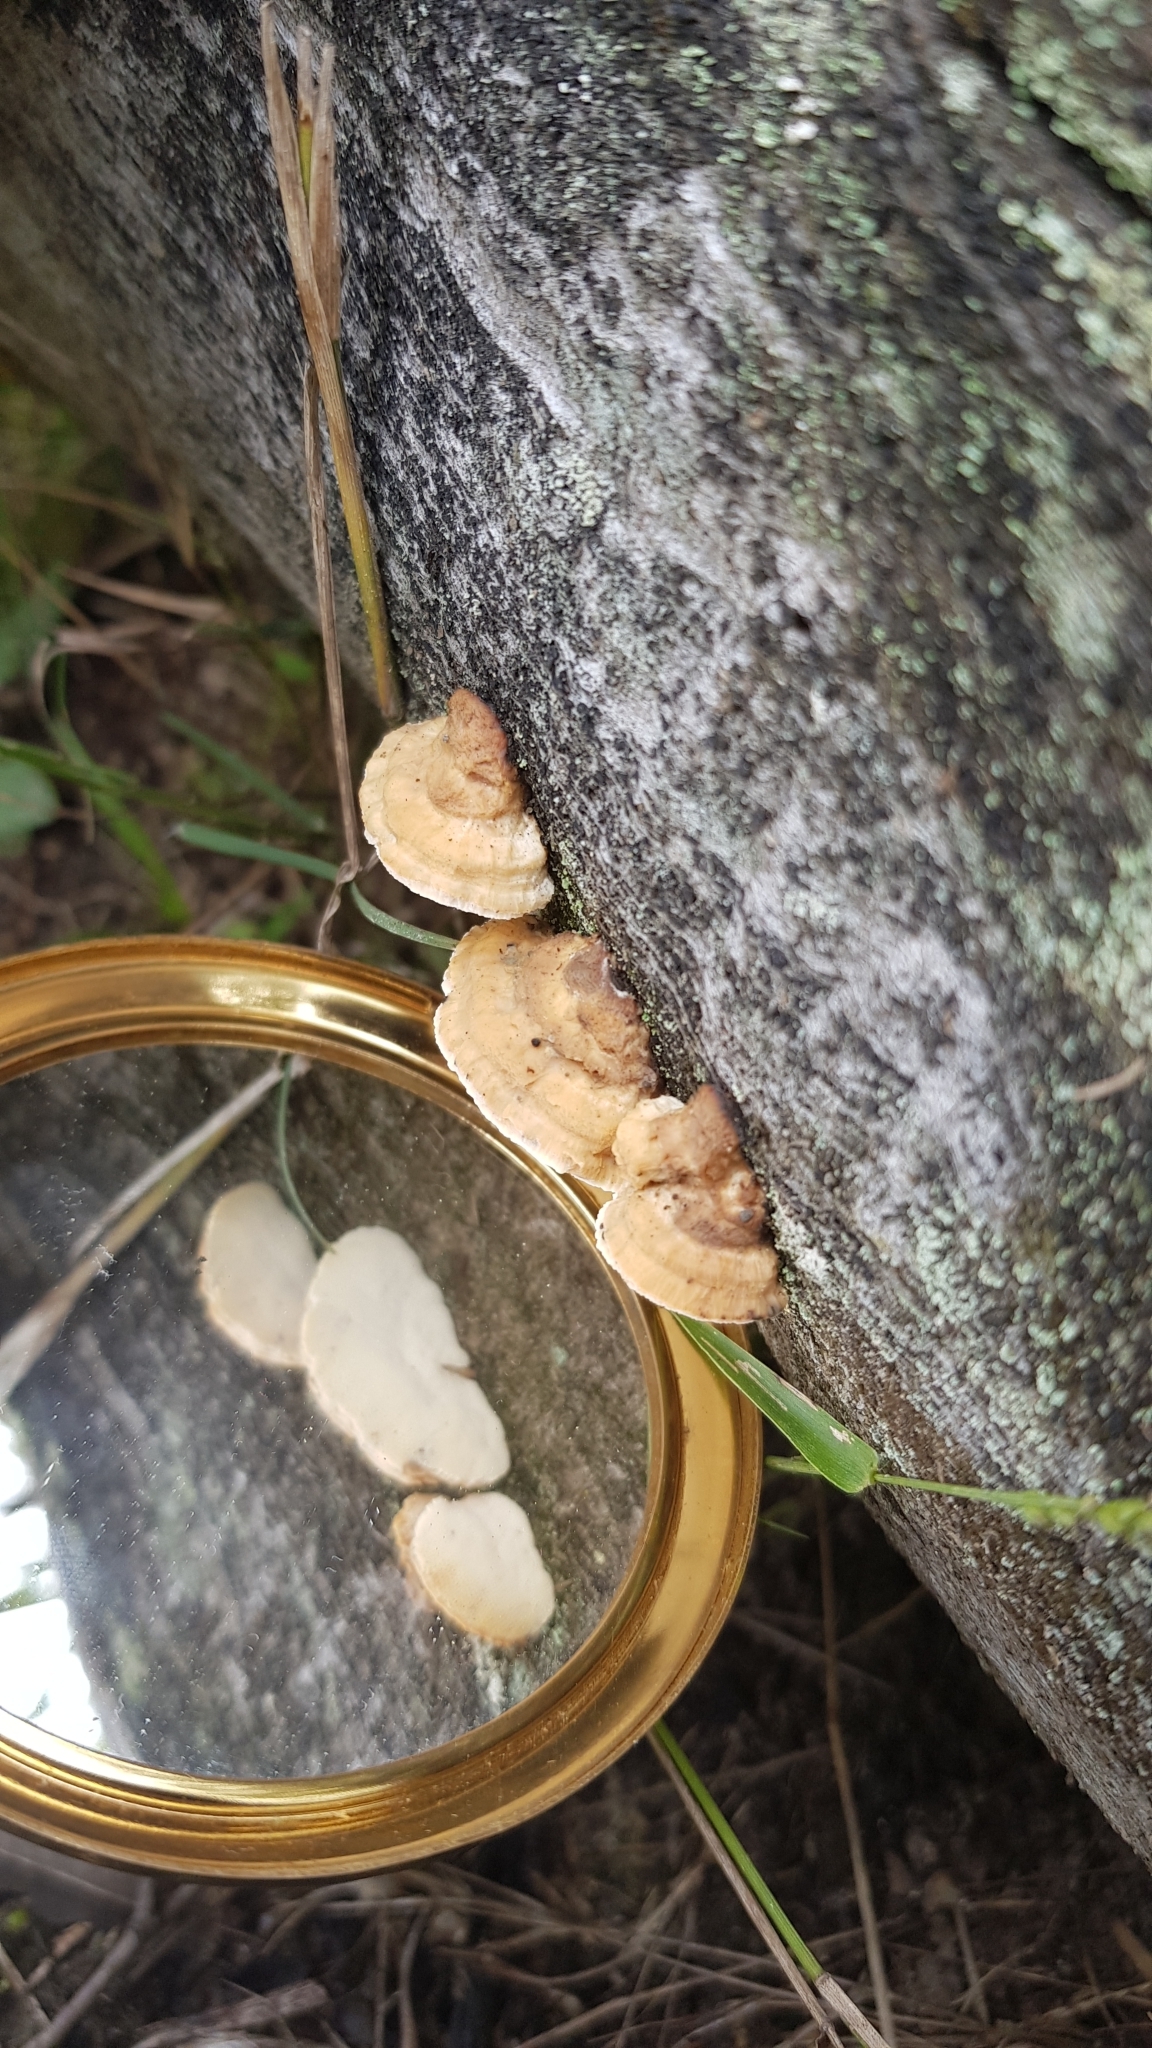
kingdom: Fungi
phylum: Basidiomycota
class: Agaricomycetes
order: Polyporales
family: Polyporaceae
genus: Truncospora
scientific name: Truncospora ochroleuca
